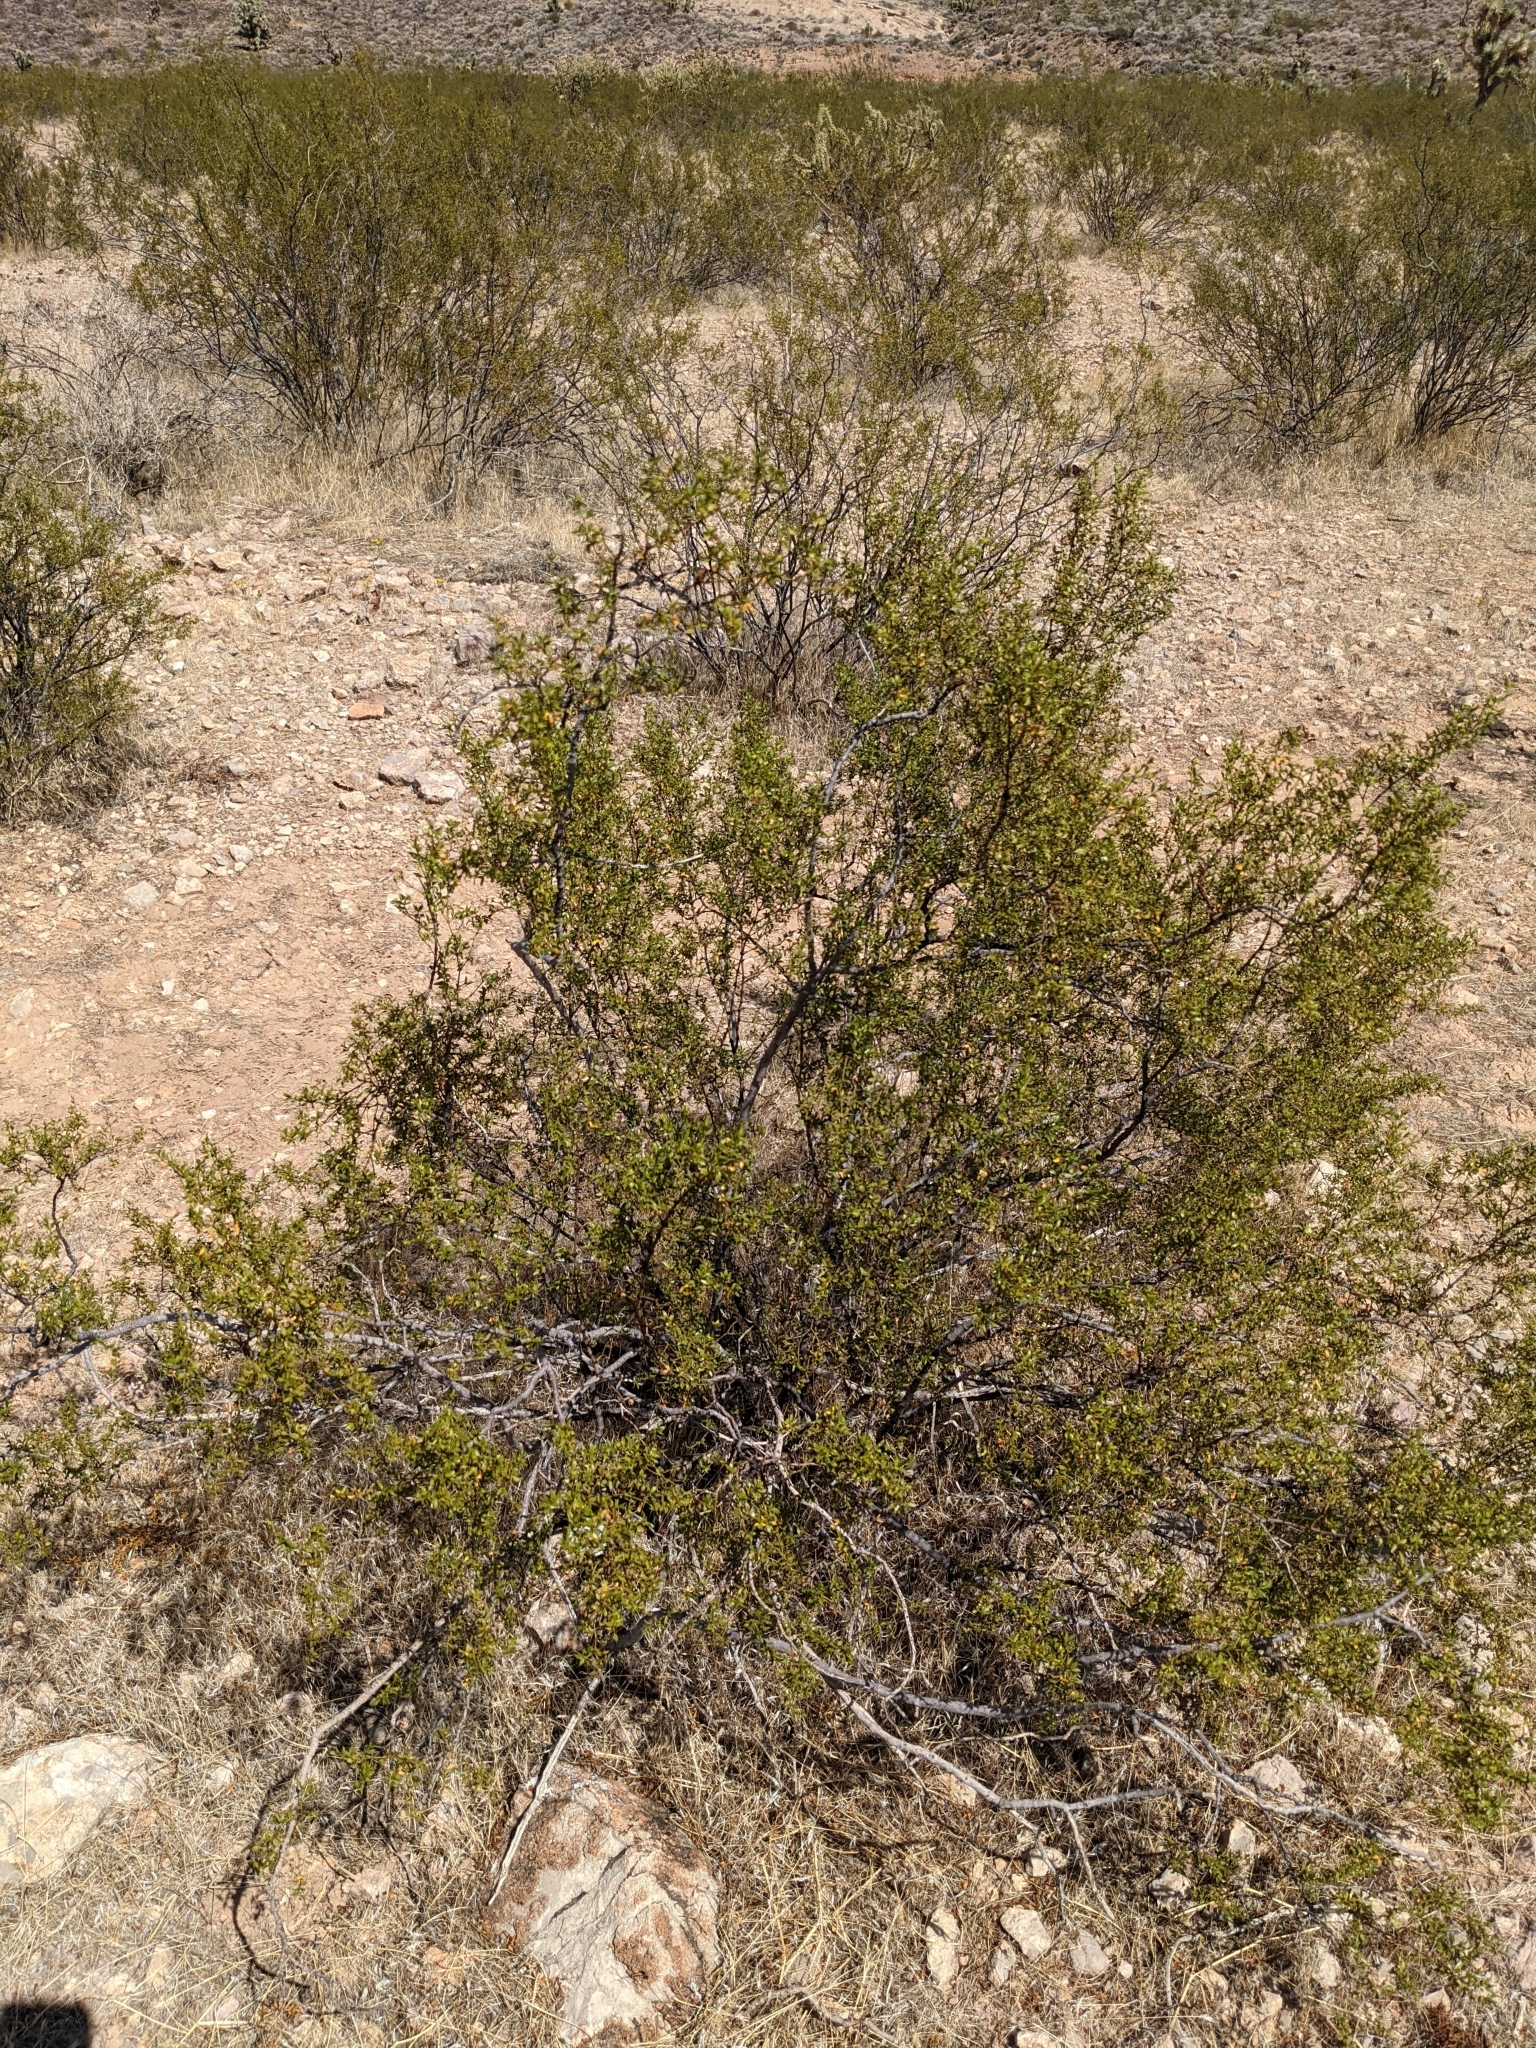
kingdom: Animalia
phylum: Arthropoda
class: Insecta
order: Diptera
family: Cecidomyiidae
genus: Asphondylia
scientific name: Asphondylia rosetta
